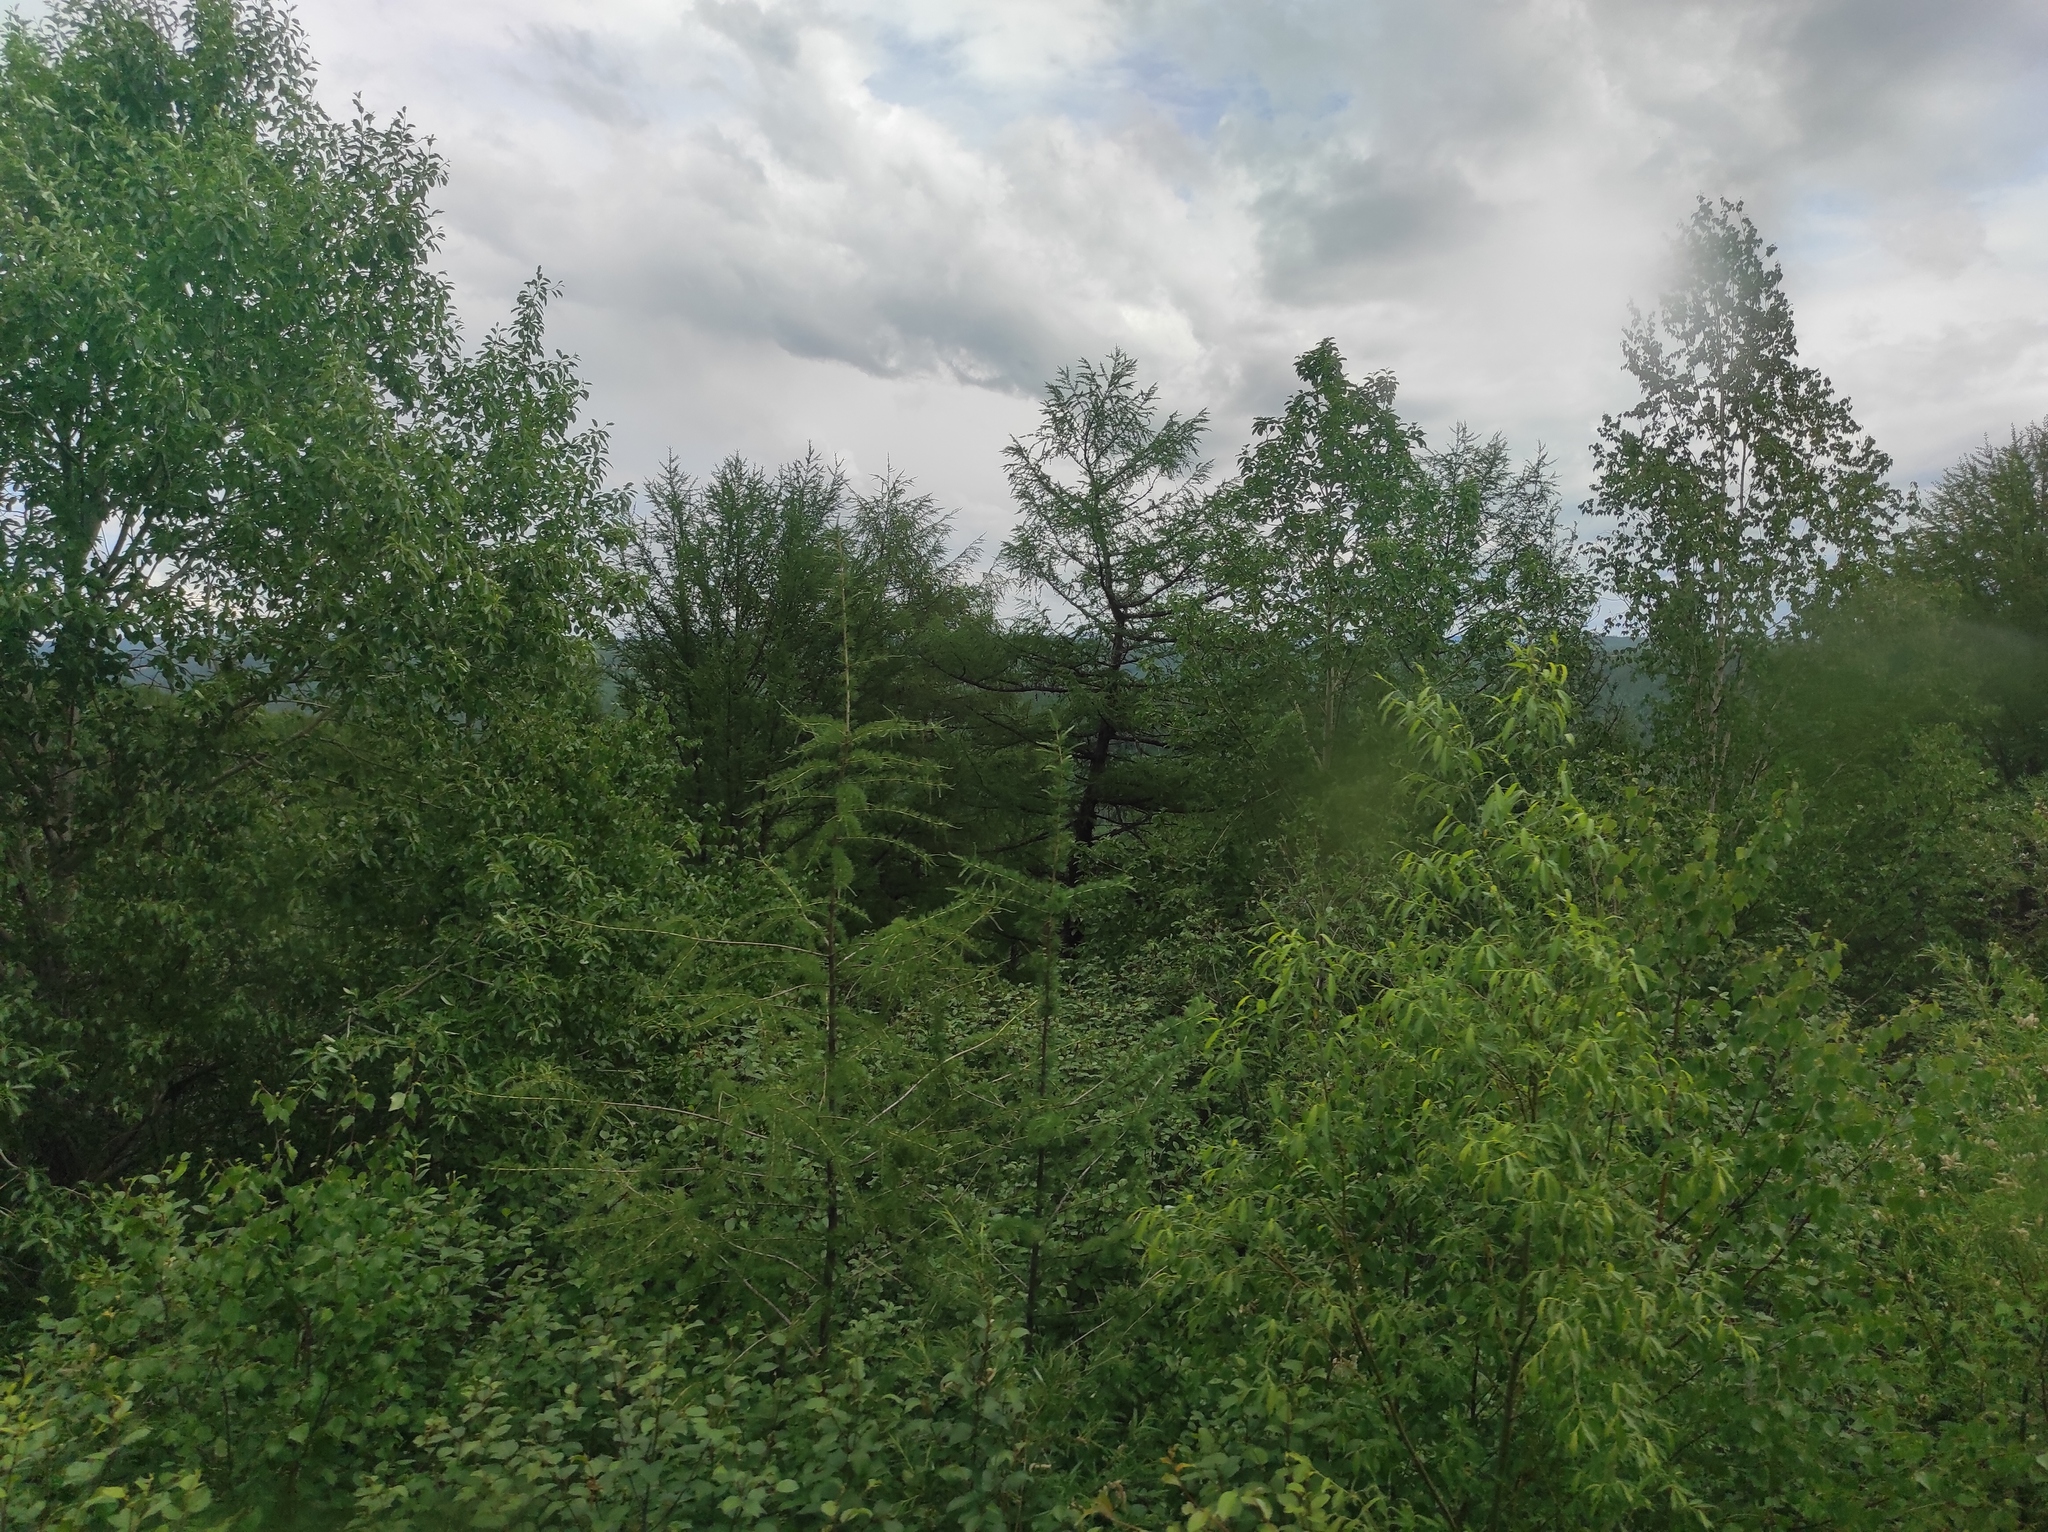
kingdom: Plantae
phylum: Tracheophyta
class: Pinopsida
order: Pinales
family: Pinaceae
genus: Larix
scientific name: Larix gmelinii
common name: Dahurian larch
